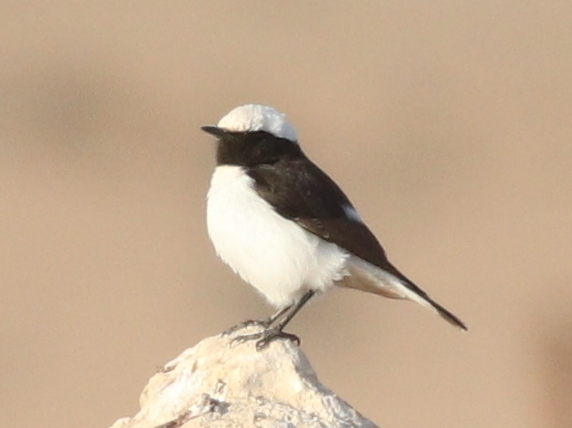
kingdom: Animalia
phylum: Chordata
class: Aves
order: Passeriformes
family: Muscicapidae
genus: Oenanthe
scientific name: Oenanthe lugens
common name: Mourning wheatear
